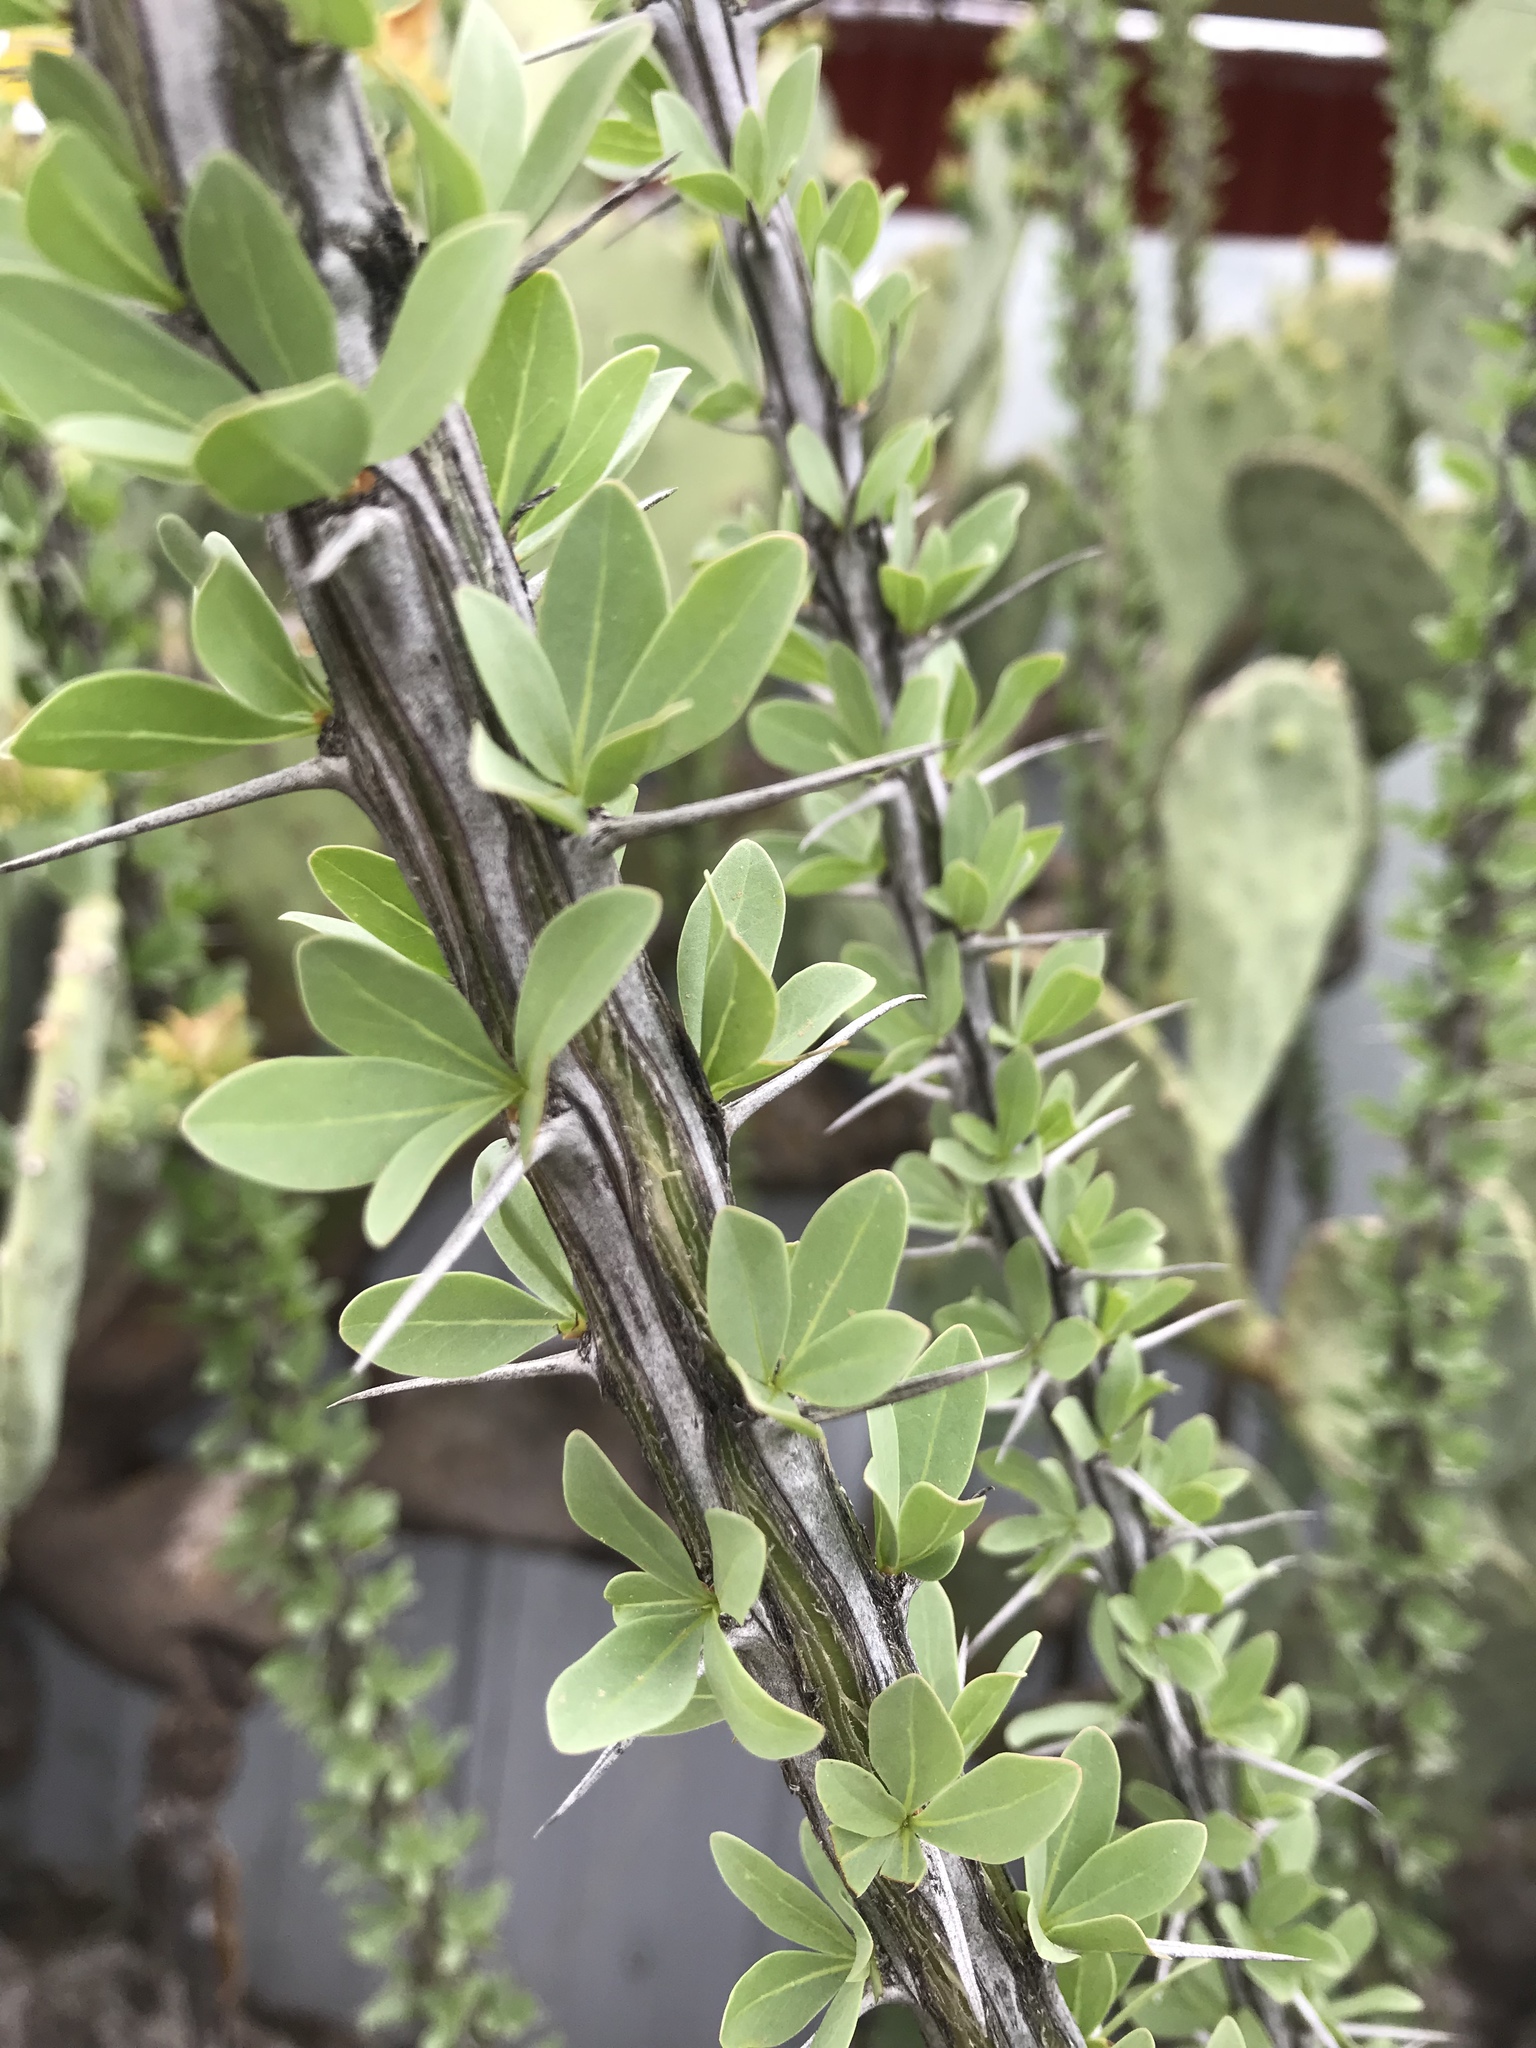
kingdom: Plantae
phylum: Tracheophyta
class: Magnoliopsida
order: Ericales
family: Fouquieriaceae
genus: Fouquieria
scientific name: Fouquieria splendens
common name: Vine-cactus
